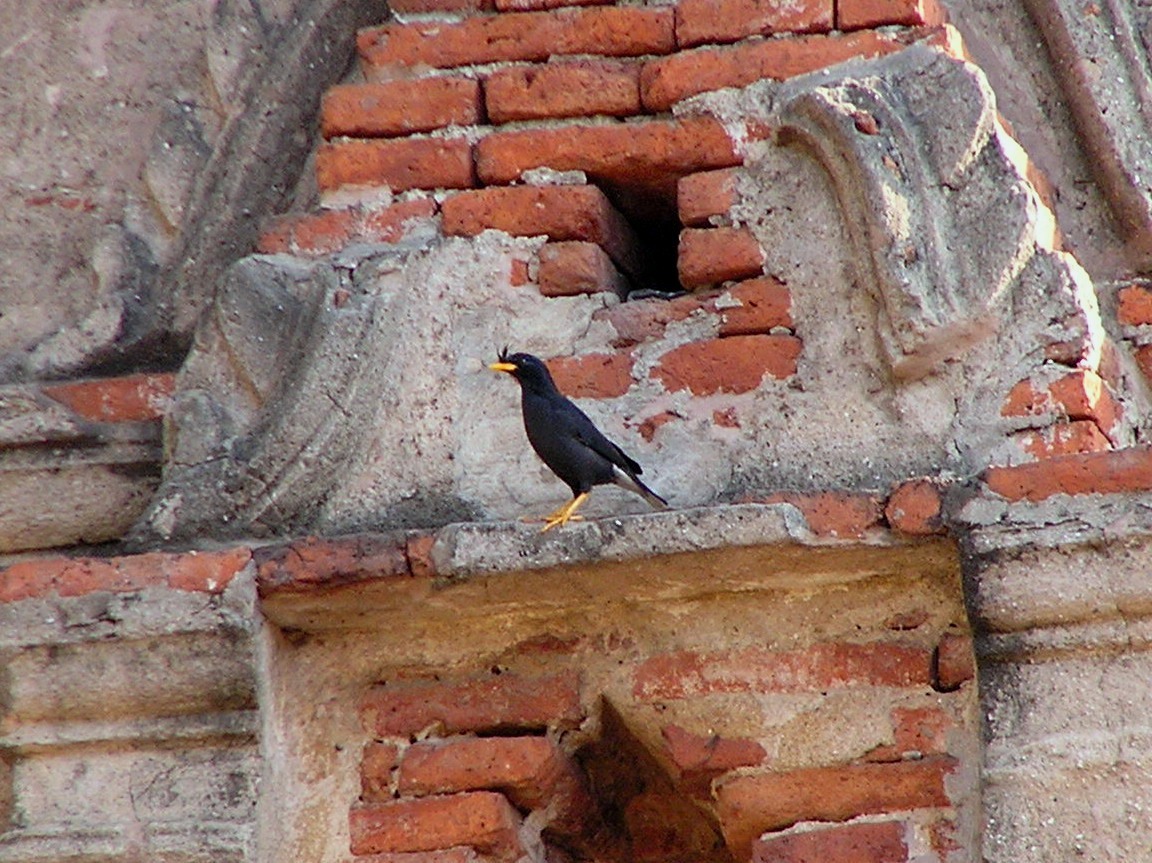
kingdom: Animalia
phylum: Chordata
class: Aves
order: Passeriformes
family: Sturnidae
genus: Acridotheres
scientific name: Acridotheres grandis
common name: Great myna
